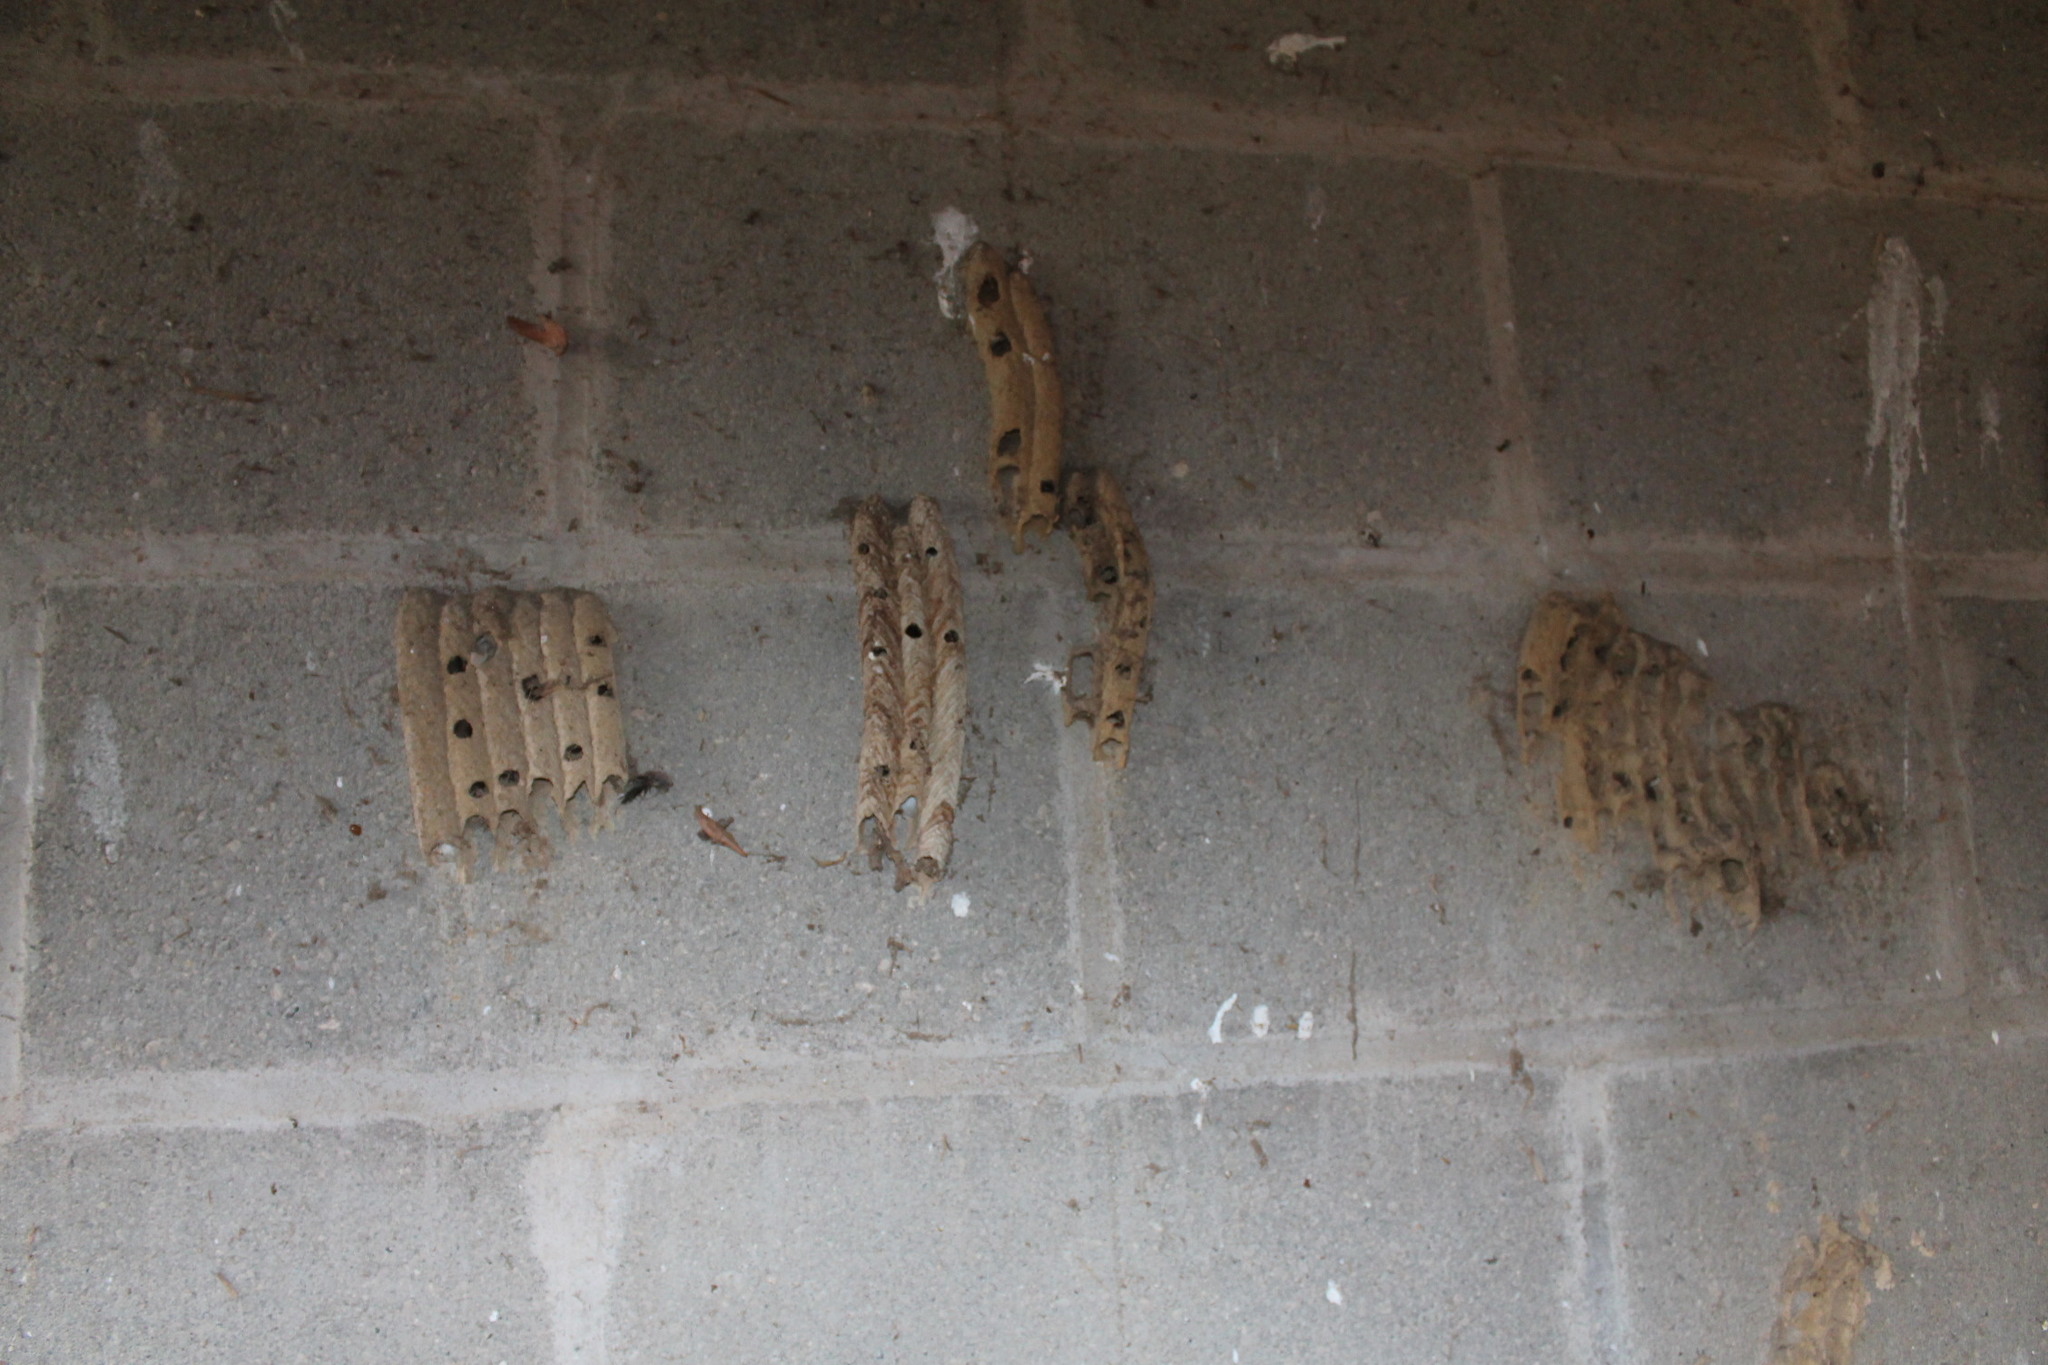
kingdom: Animalia
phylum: Arthropoda
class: Insecta
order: Hymenoptera
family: Crabronidae
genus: Trypoxylon
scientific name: Trypoxylon politum
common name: Organ-pipe mud-dauber wasp
